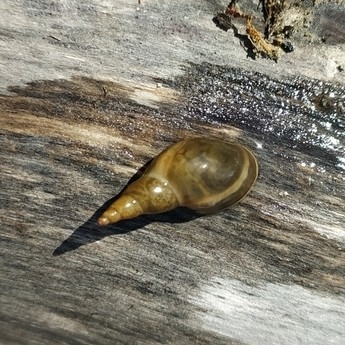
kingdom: Animalia
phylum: Mollusca
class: Gastropoda
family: Lymnaeidae
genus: Lymnaea
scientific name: Lymnaea stagnalis
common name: Great pond snail
